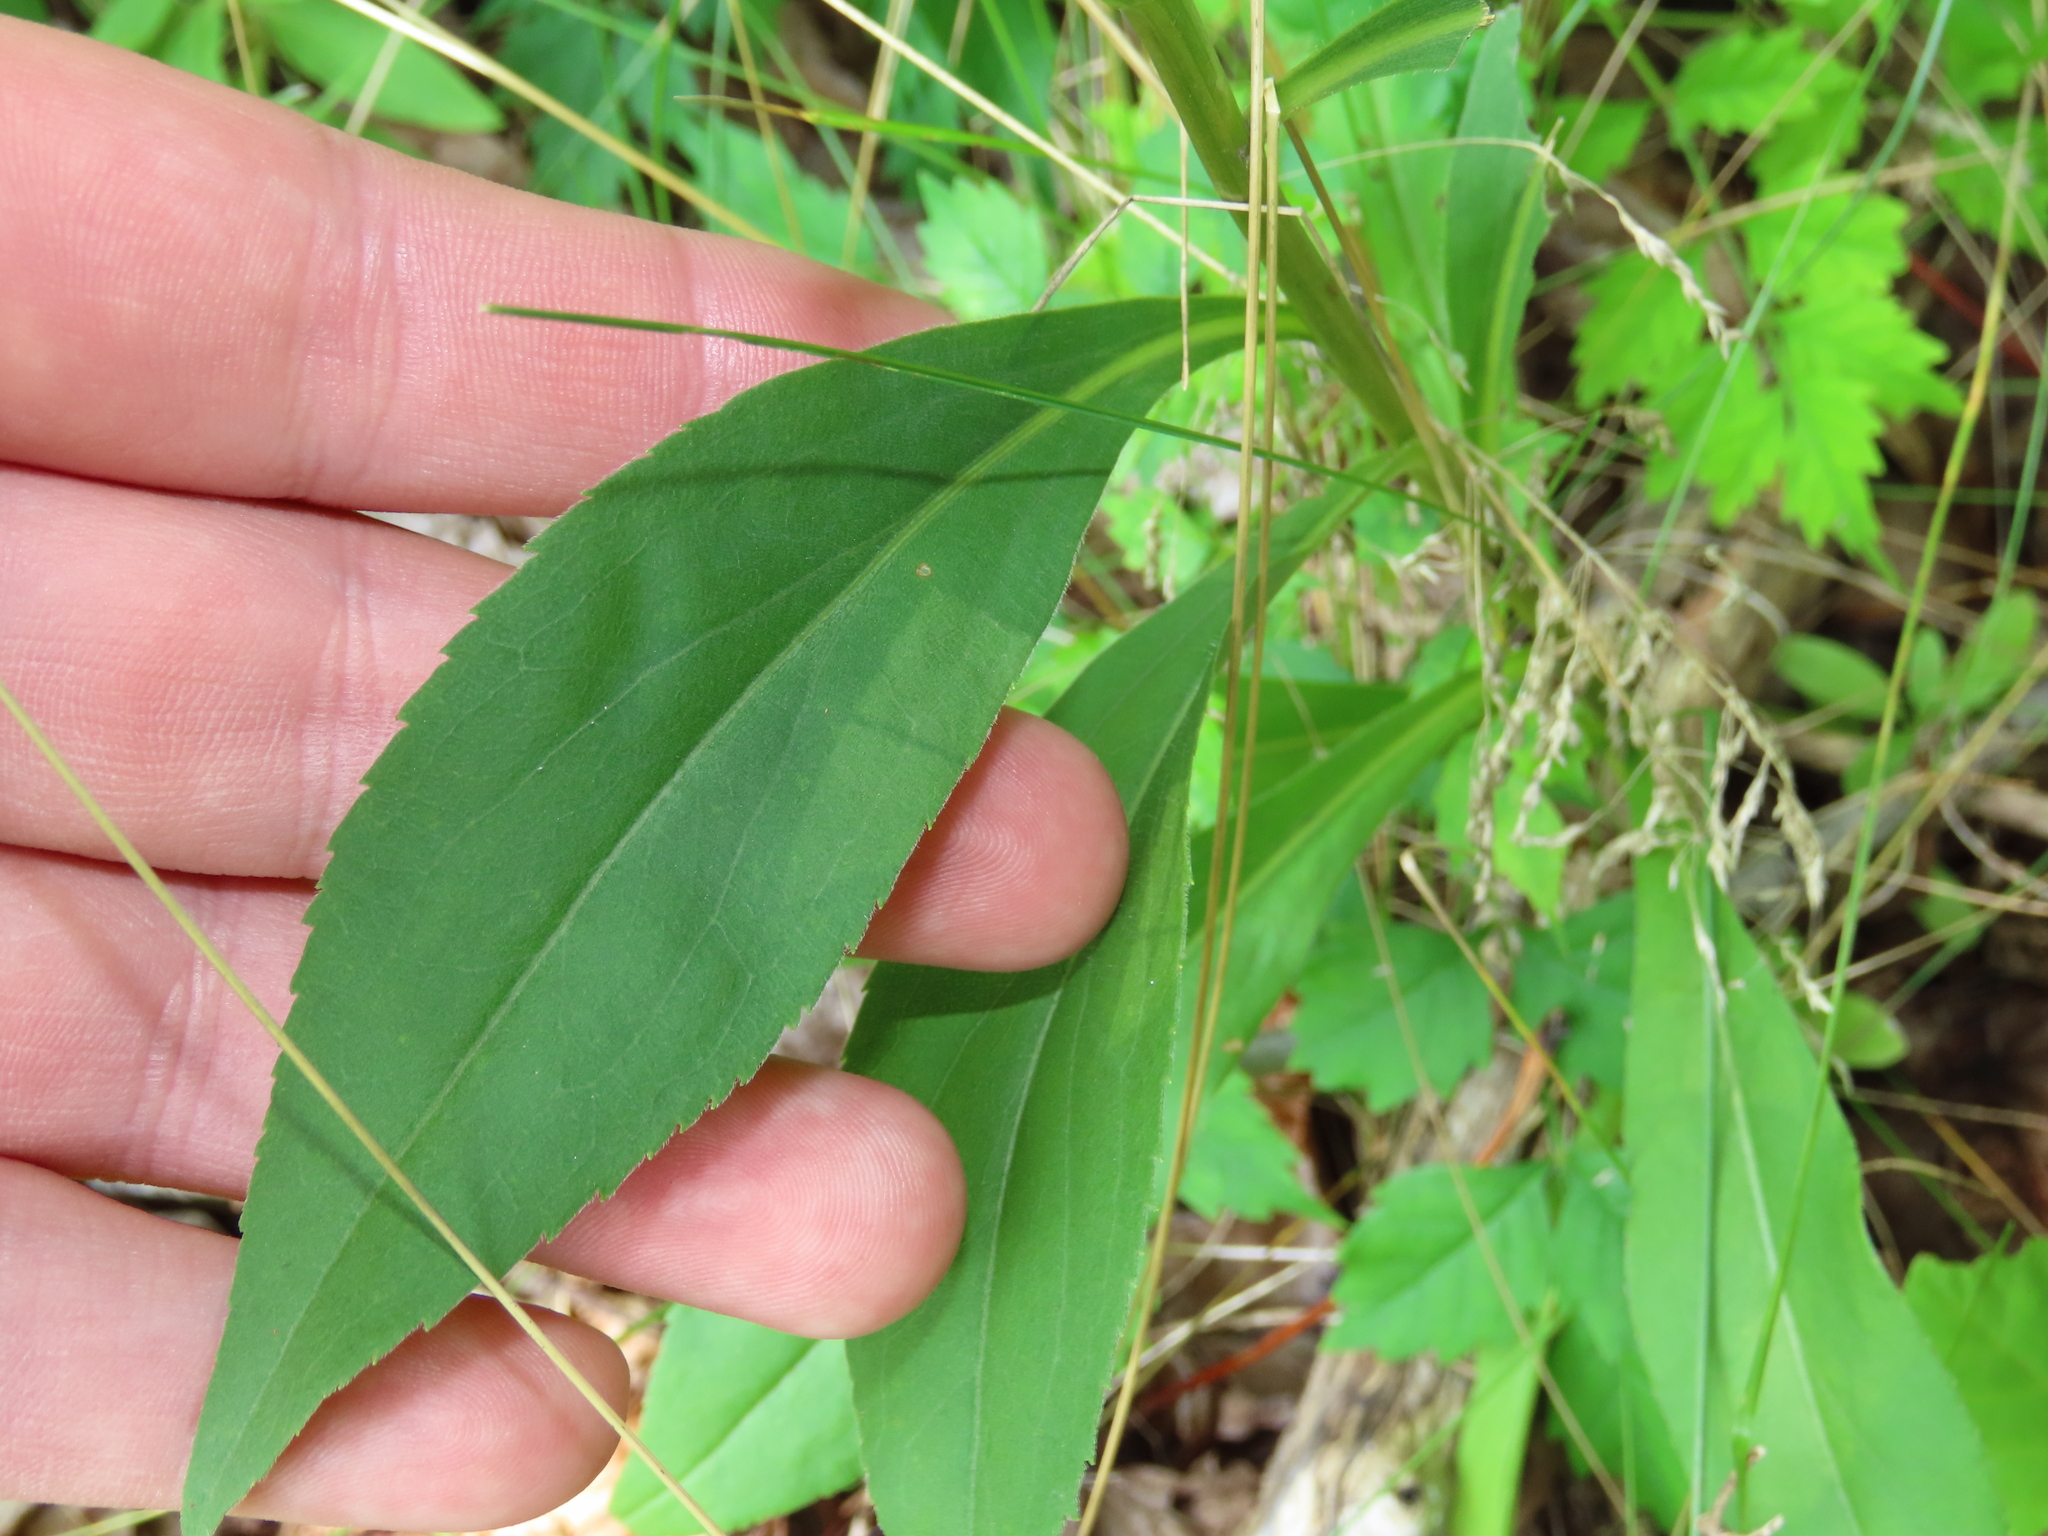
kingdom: Plantae
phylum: Tracheophyta
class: Magnoliopsida
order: Asterales
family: Asteraceae
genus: Solidago
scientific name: Solidago juncea
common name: Early goldenrod
